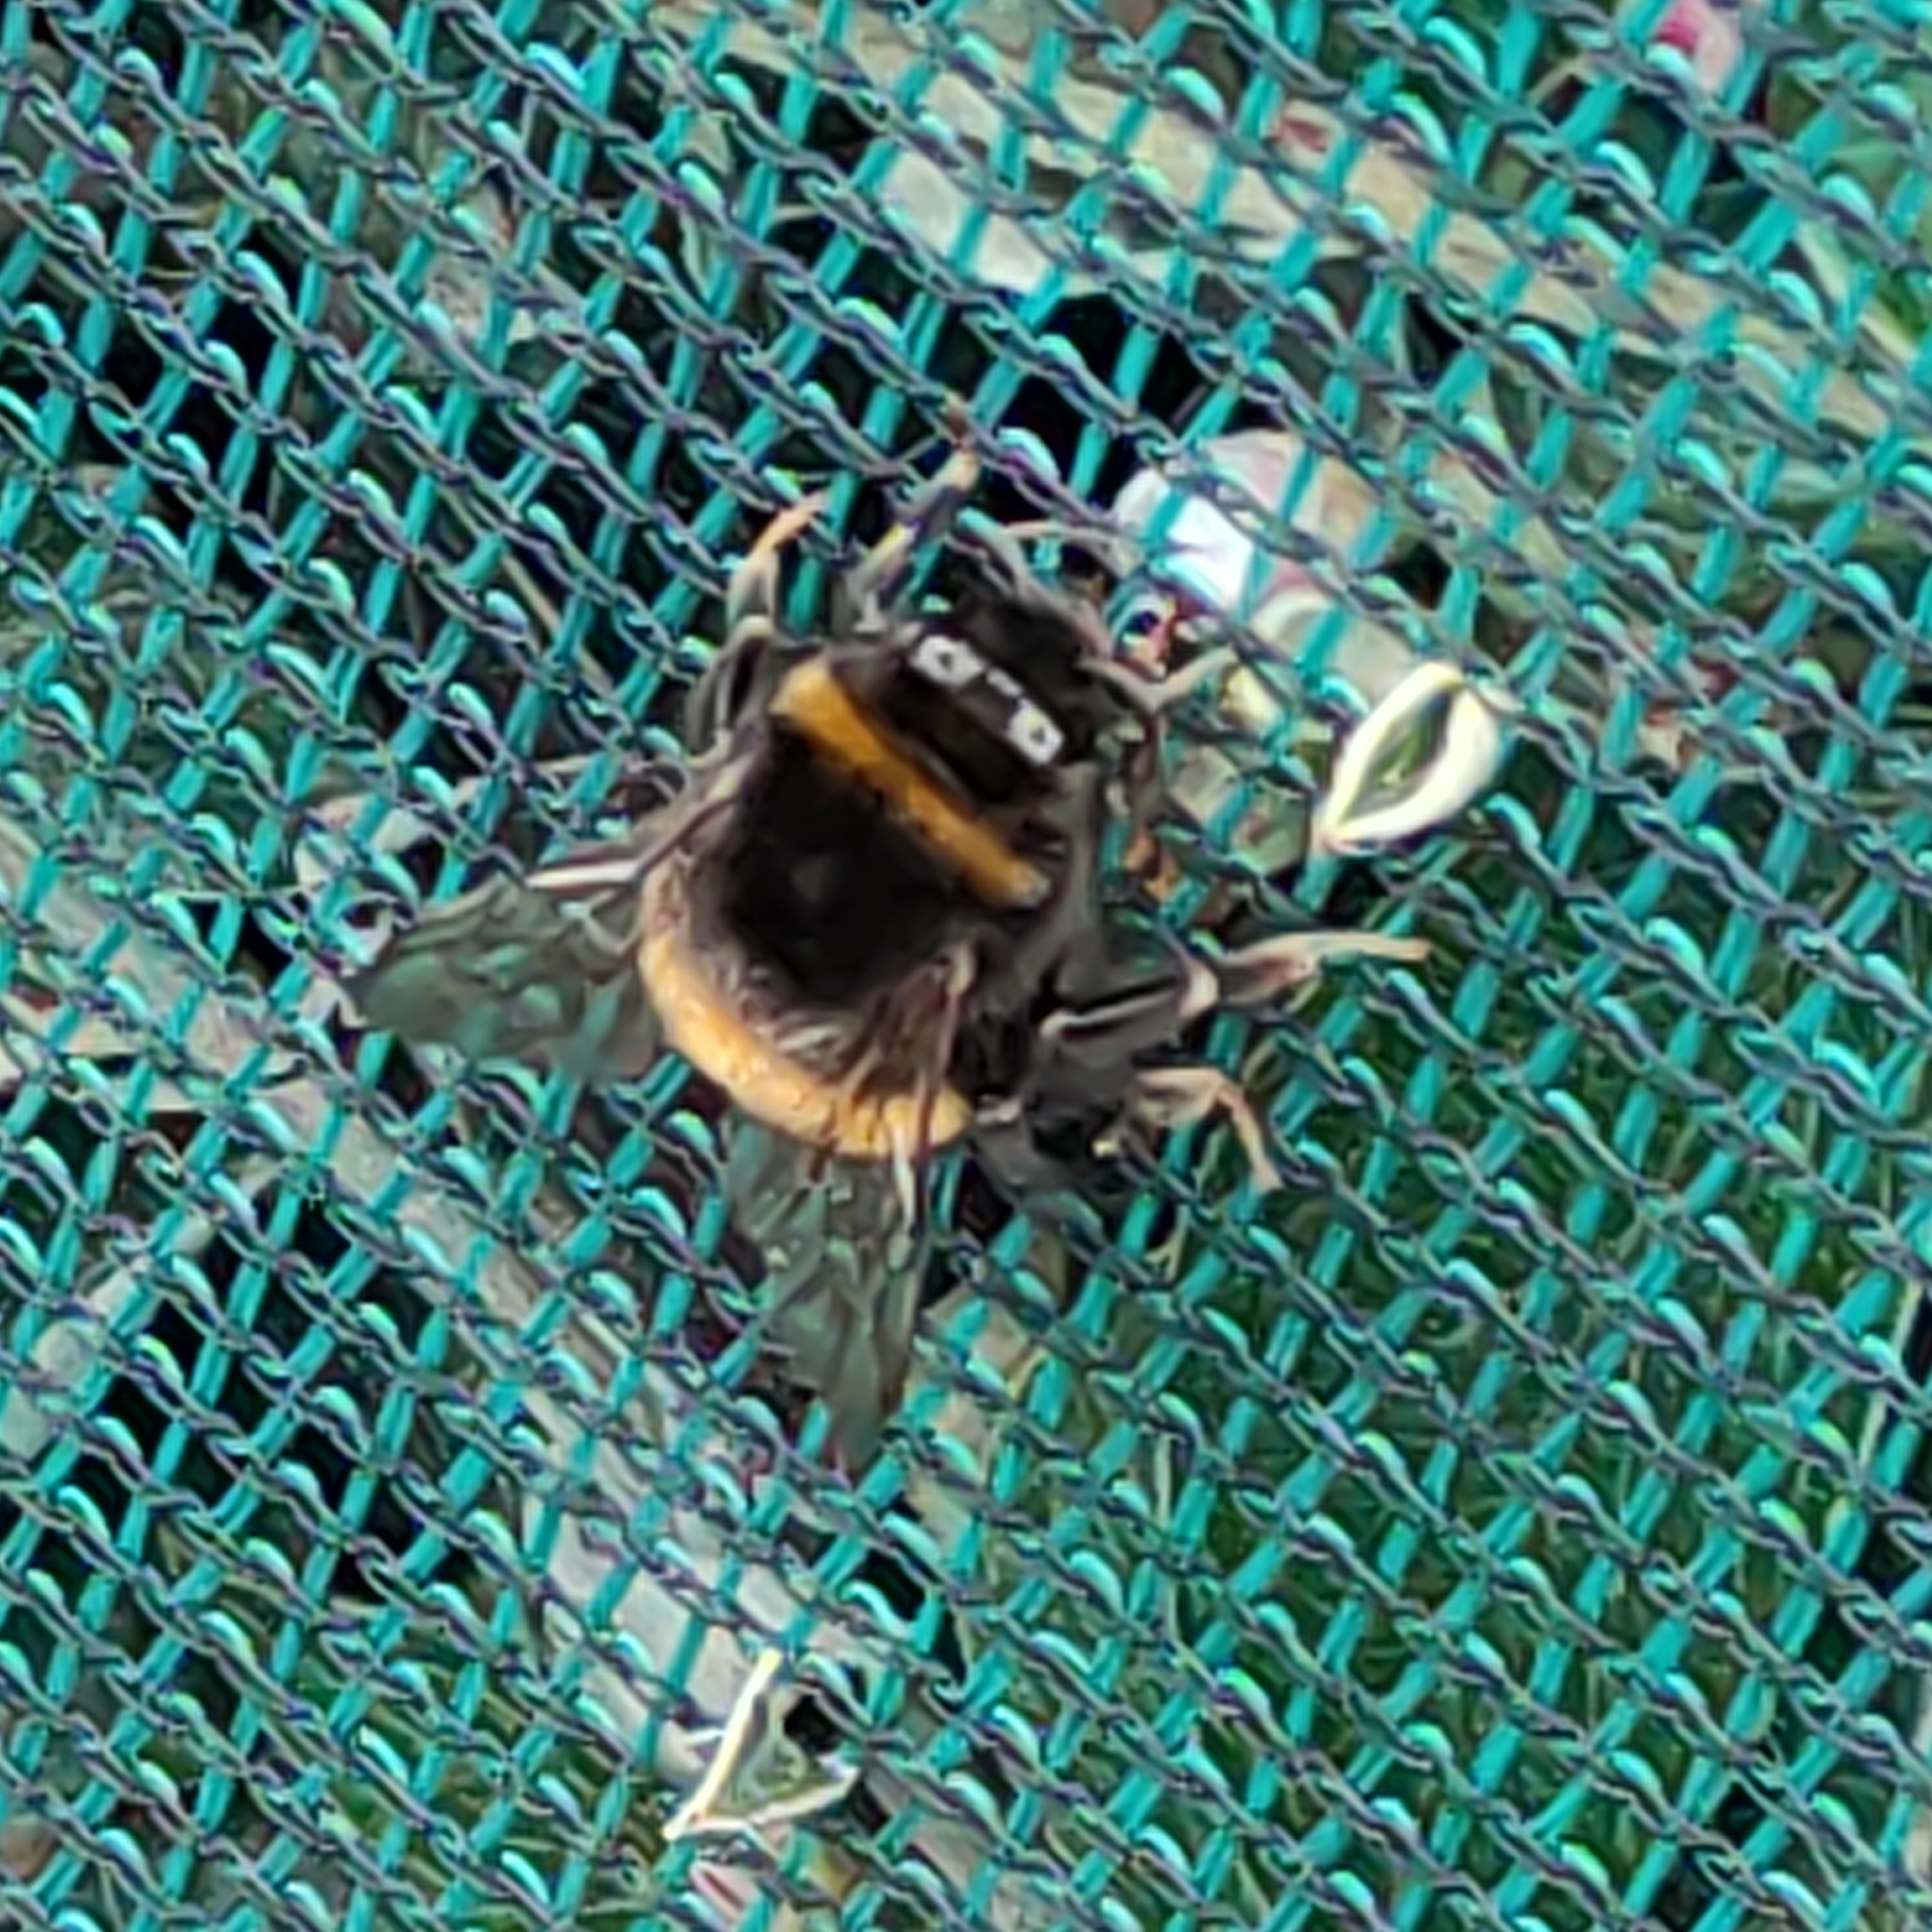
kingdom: Animalia
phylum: Arthropoda
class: Insecta
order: Hymenoptera
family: Apidae
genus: Bombus
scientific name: Bombus terrestris
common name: Buff-tailed bumblebee
